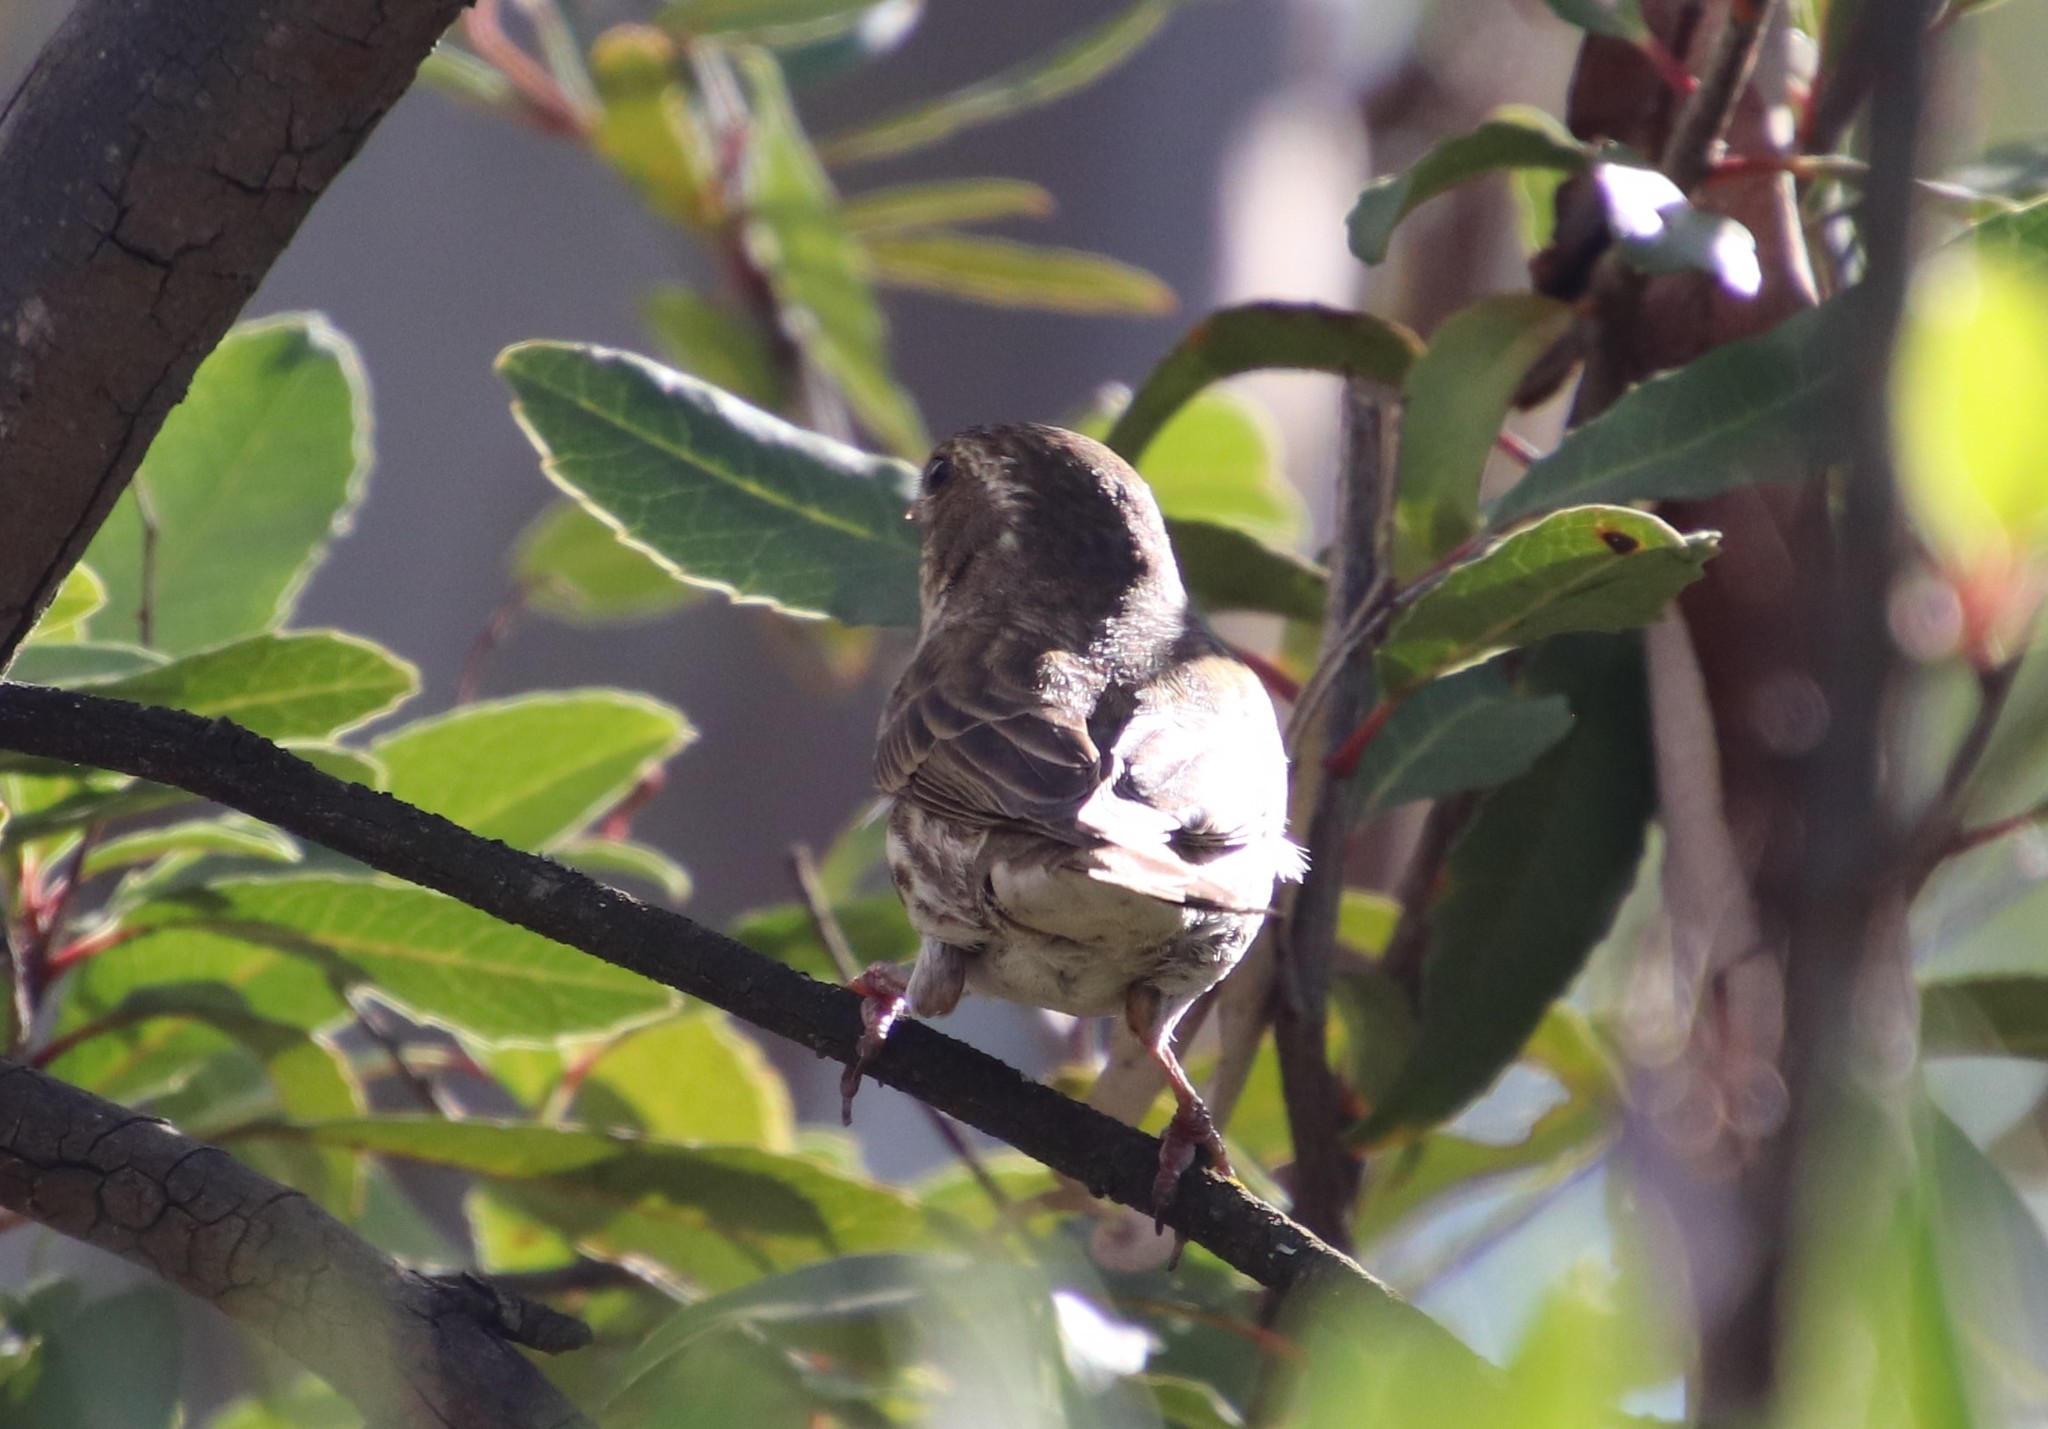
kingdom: Animalia
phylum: Chordata
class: Aves
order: Passeriformes
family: Fringillidae
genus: Haemorhous
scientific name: Haemorhous purpureus
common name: Purple finch
